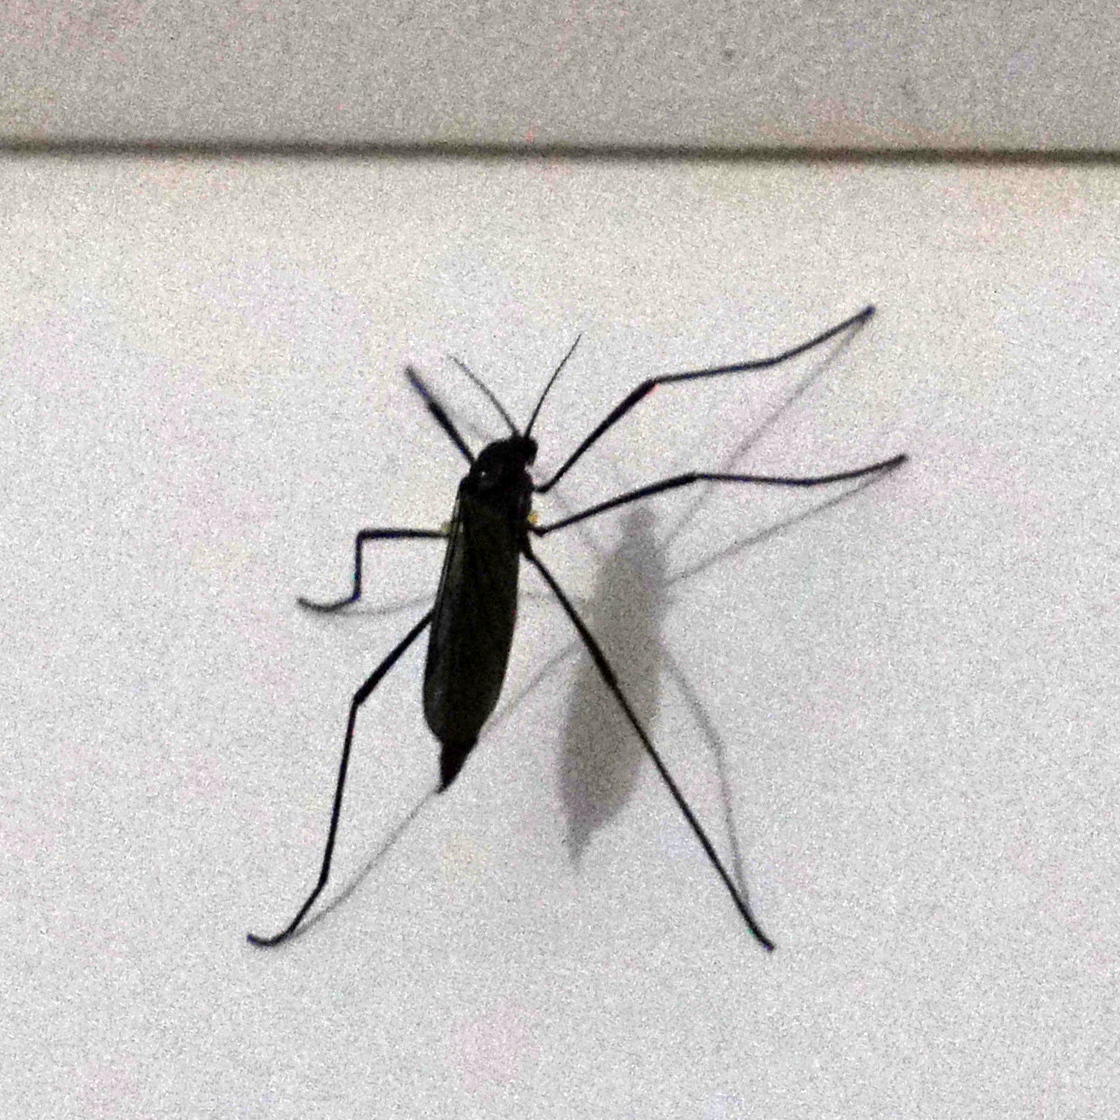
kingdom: Animalia
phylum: Arthropoda
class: Insecta
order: Diptera
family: Limoniidae
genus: Gnophomyia
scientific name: Gnophomyia tristissima
